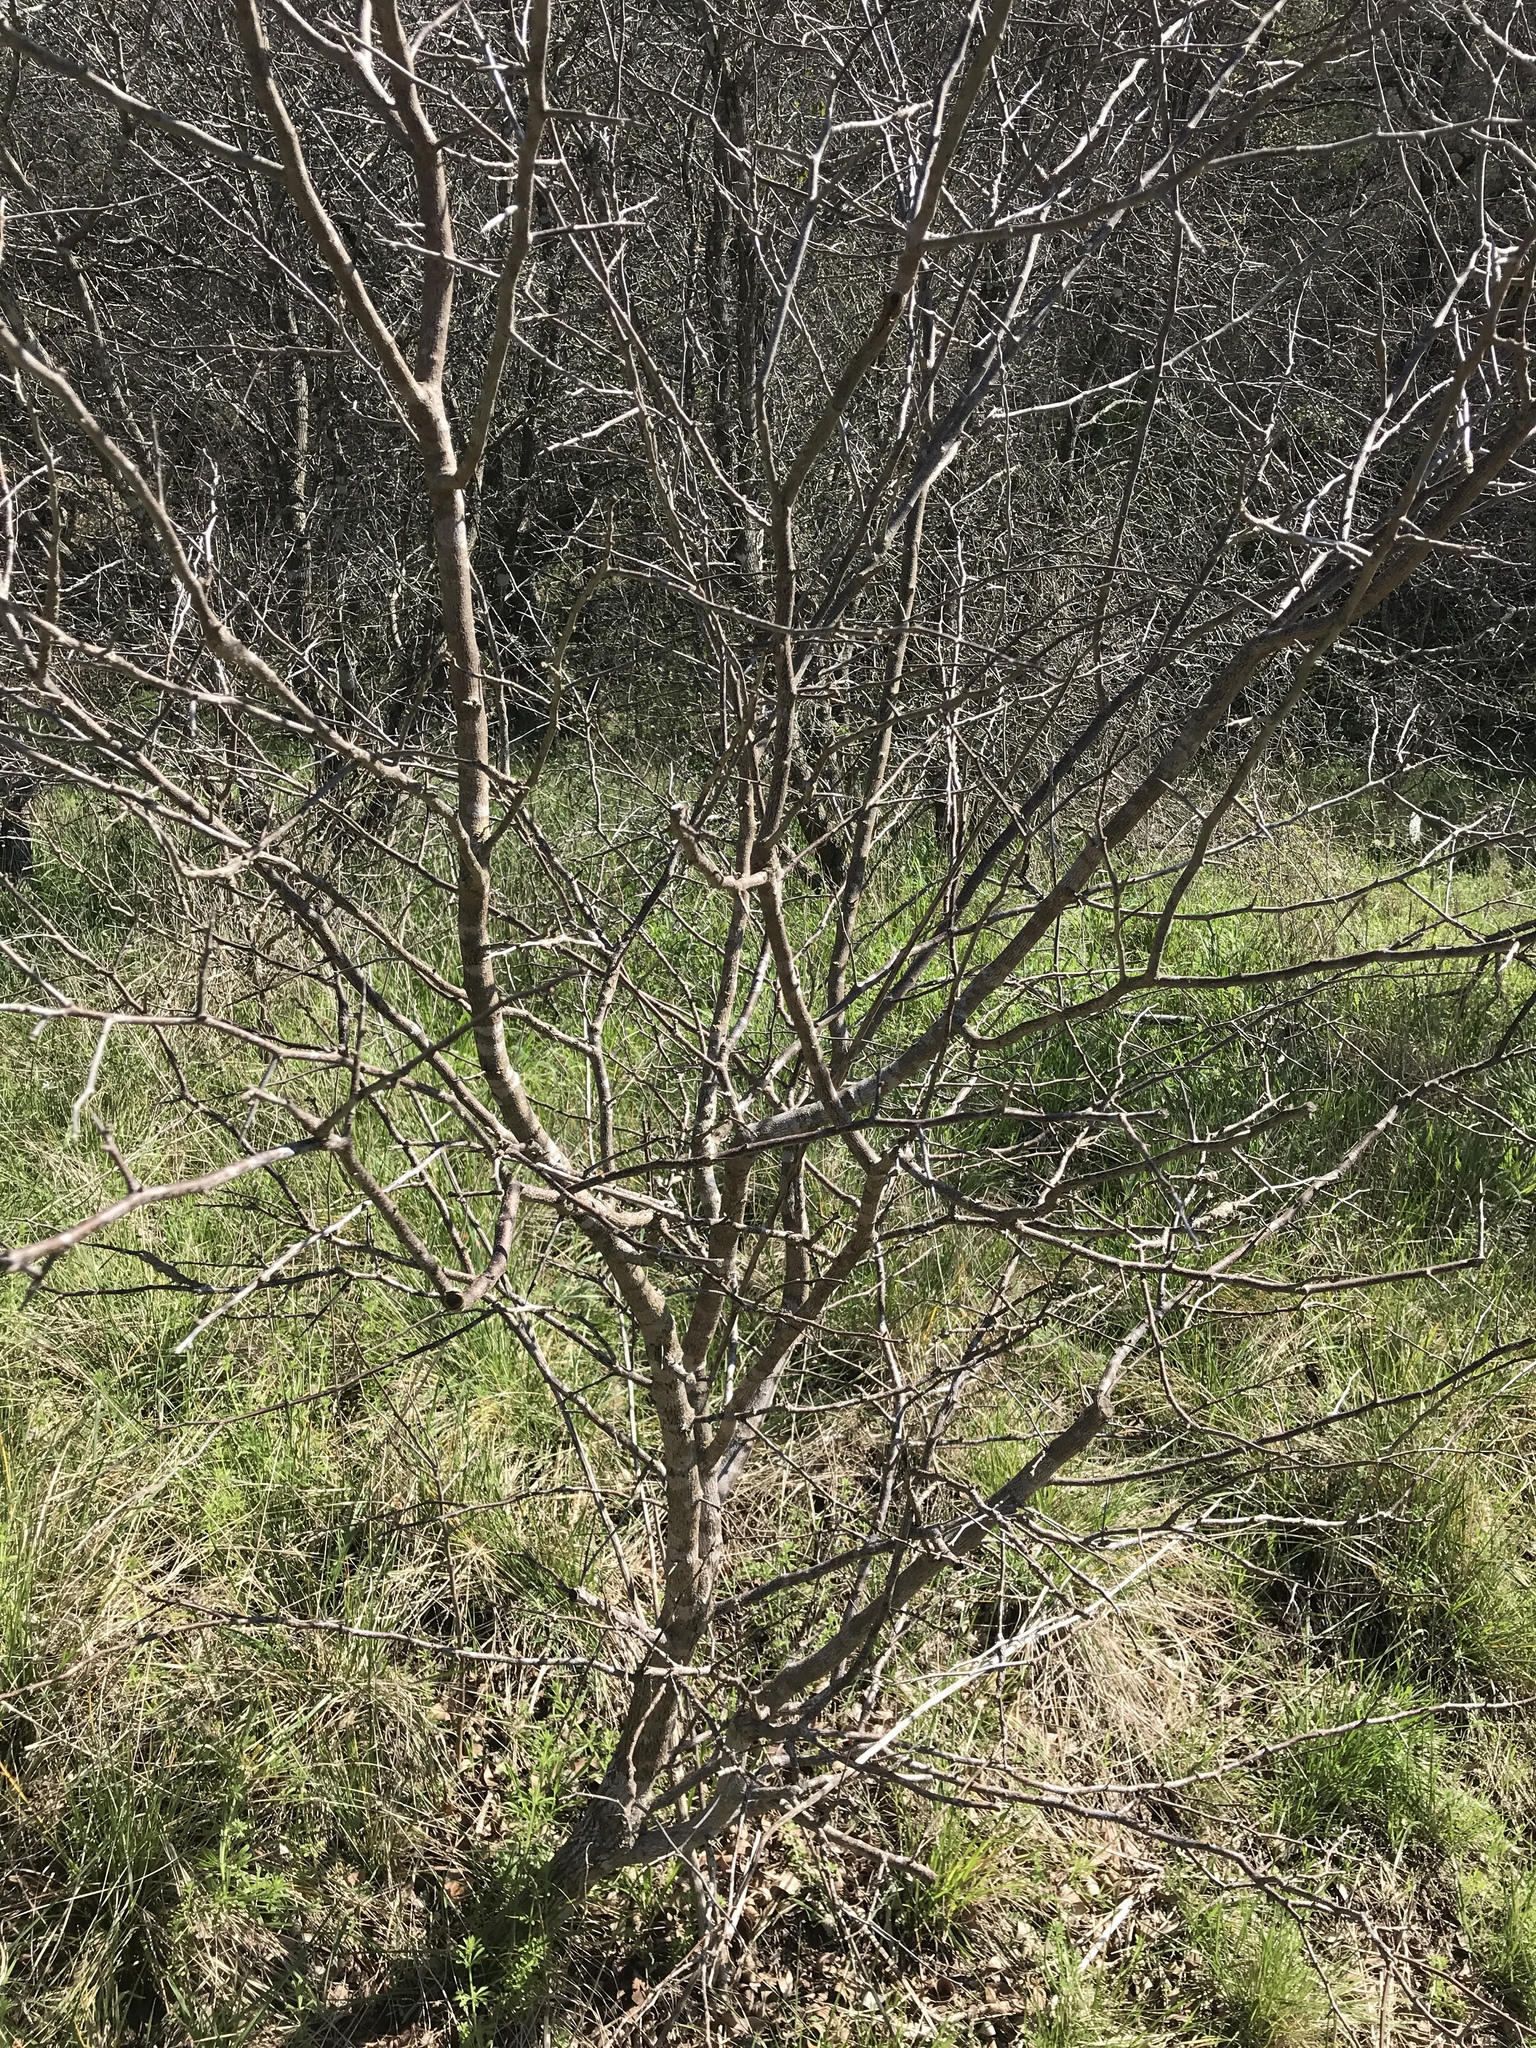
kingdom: Animalia
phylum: Arthropoda
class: Insecta
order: Diptera
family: Cecidomyiidae
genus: Bruggmanniella
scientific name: Bruggmanniella bumeliae
